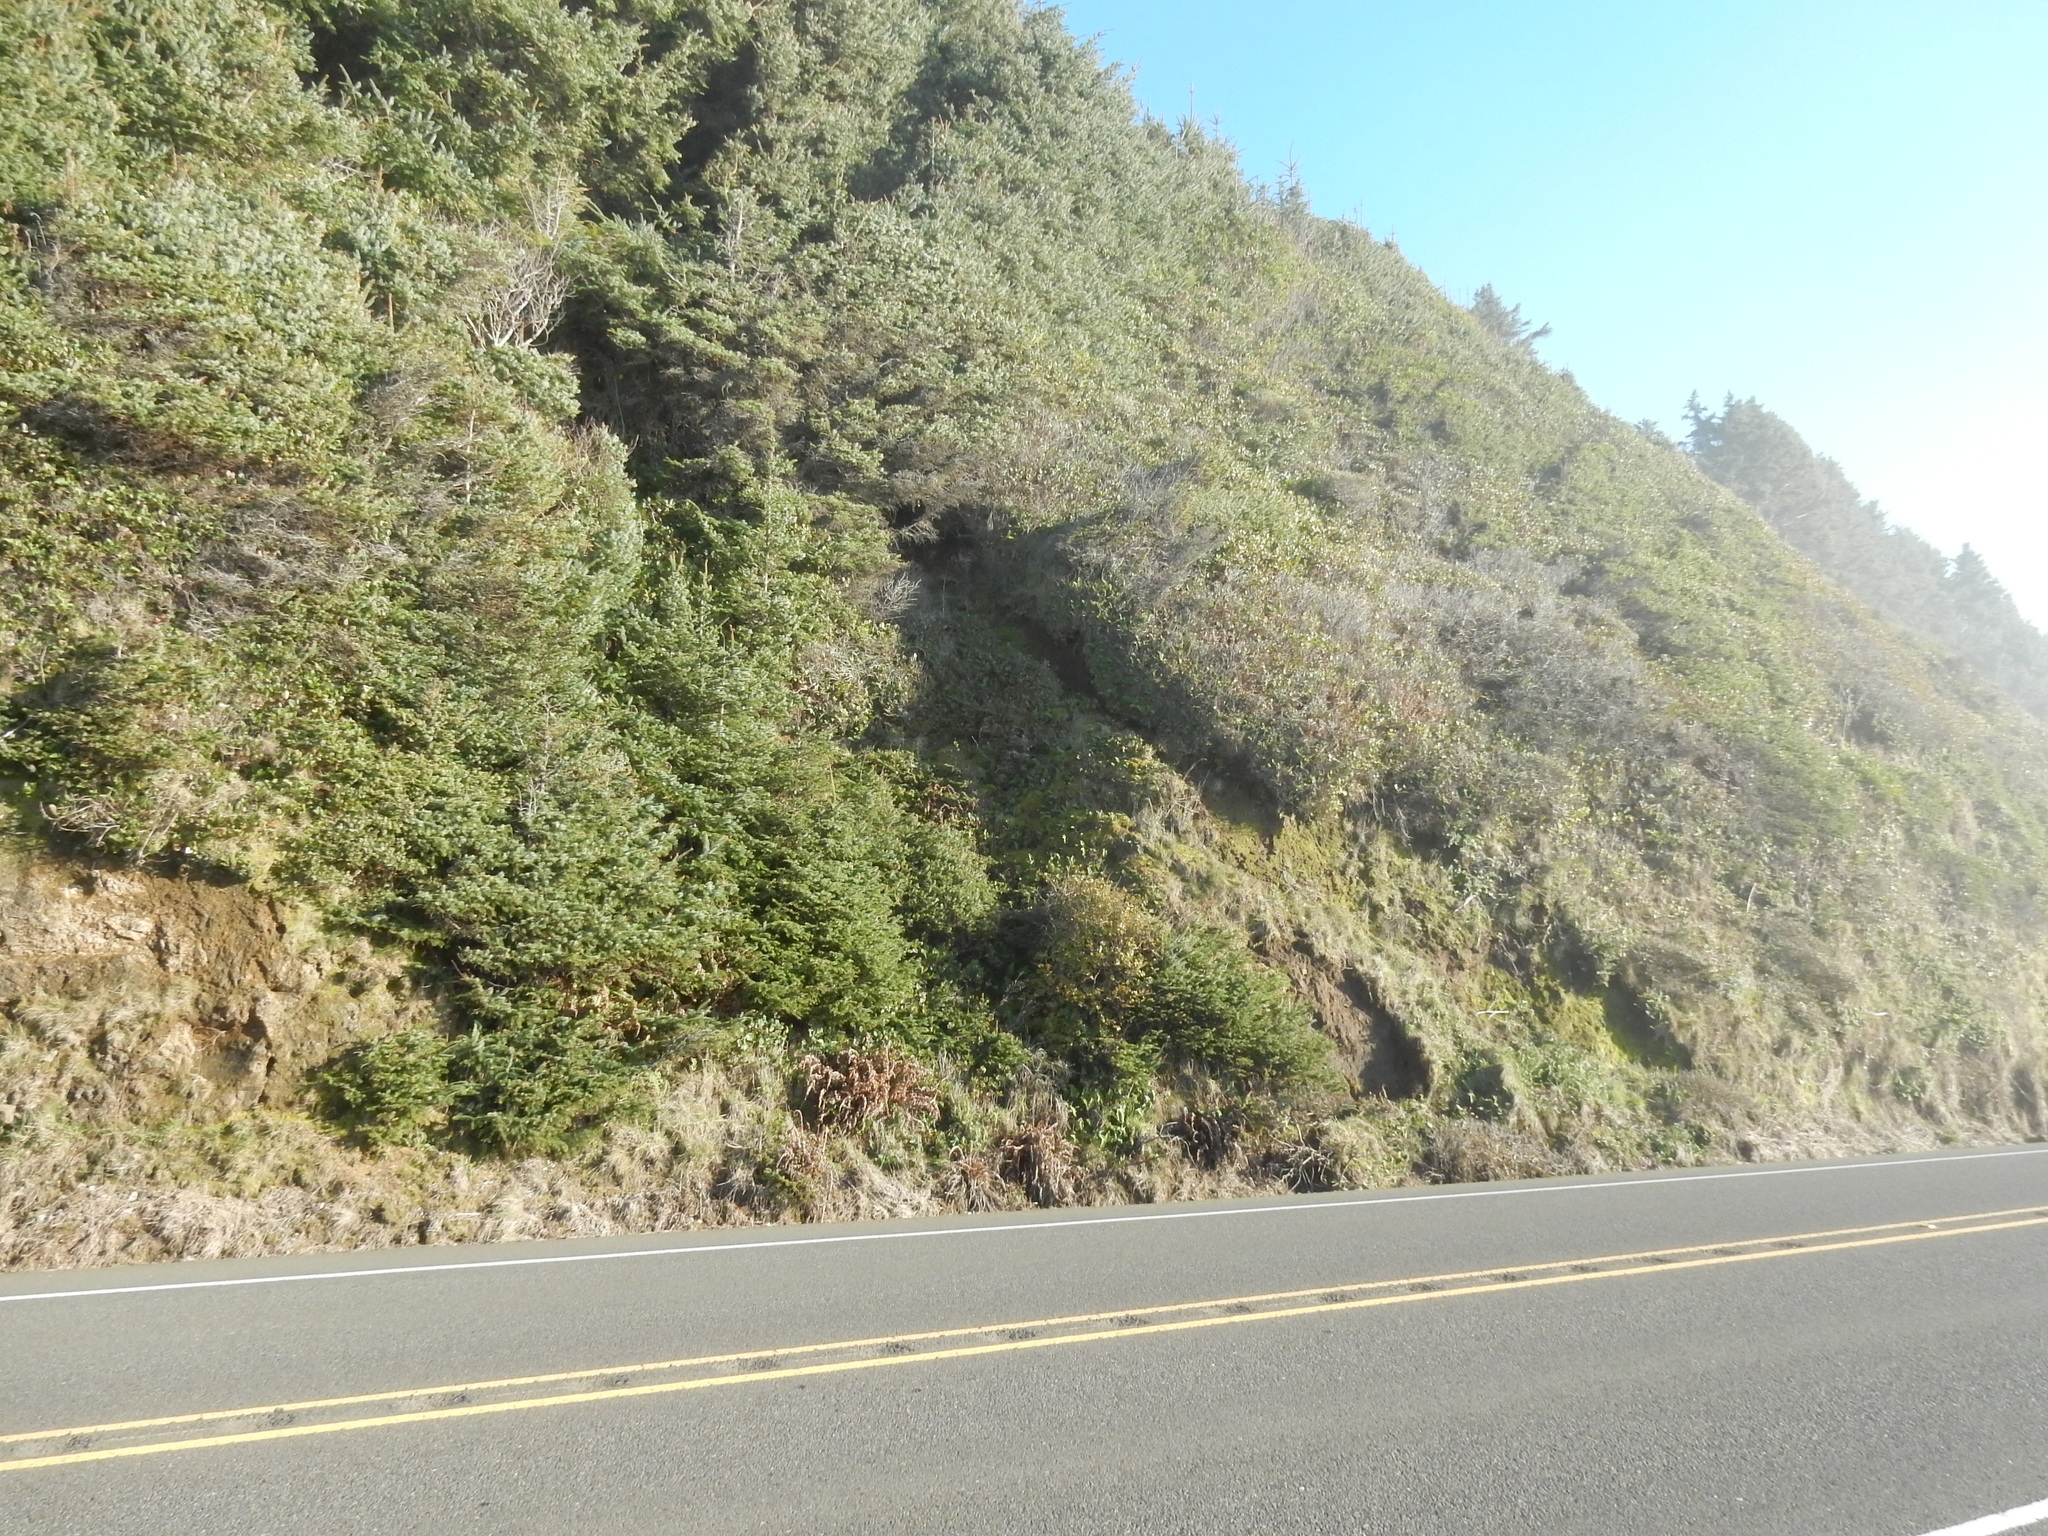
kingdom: Plantae
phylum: Tracheophyta
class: Polypodiopsida
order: Polypodiales
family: Polypodiaceae
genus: Polypodium
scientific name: Polypodium calirhiza
